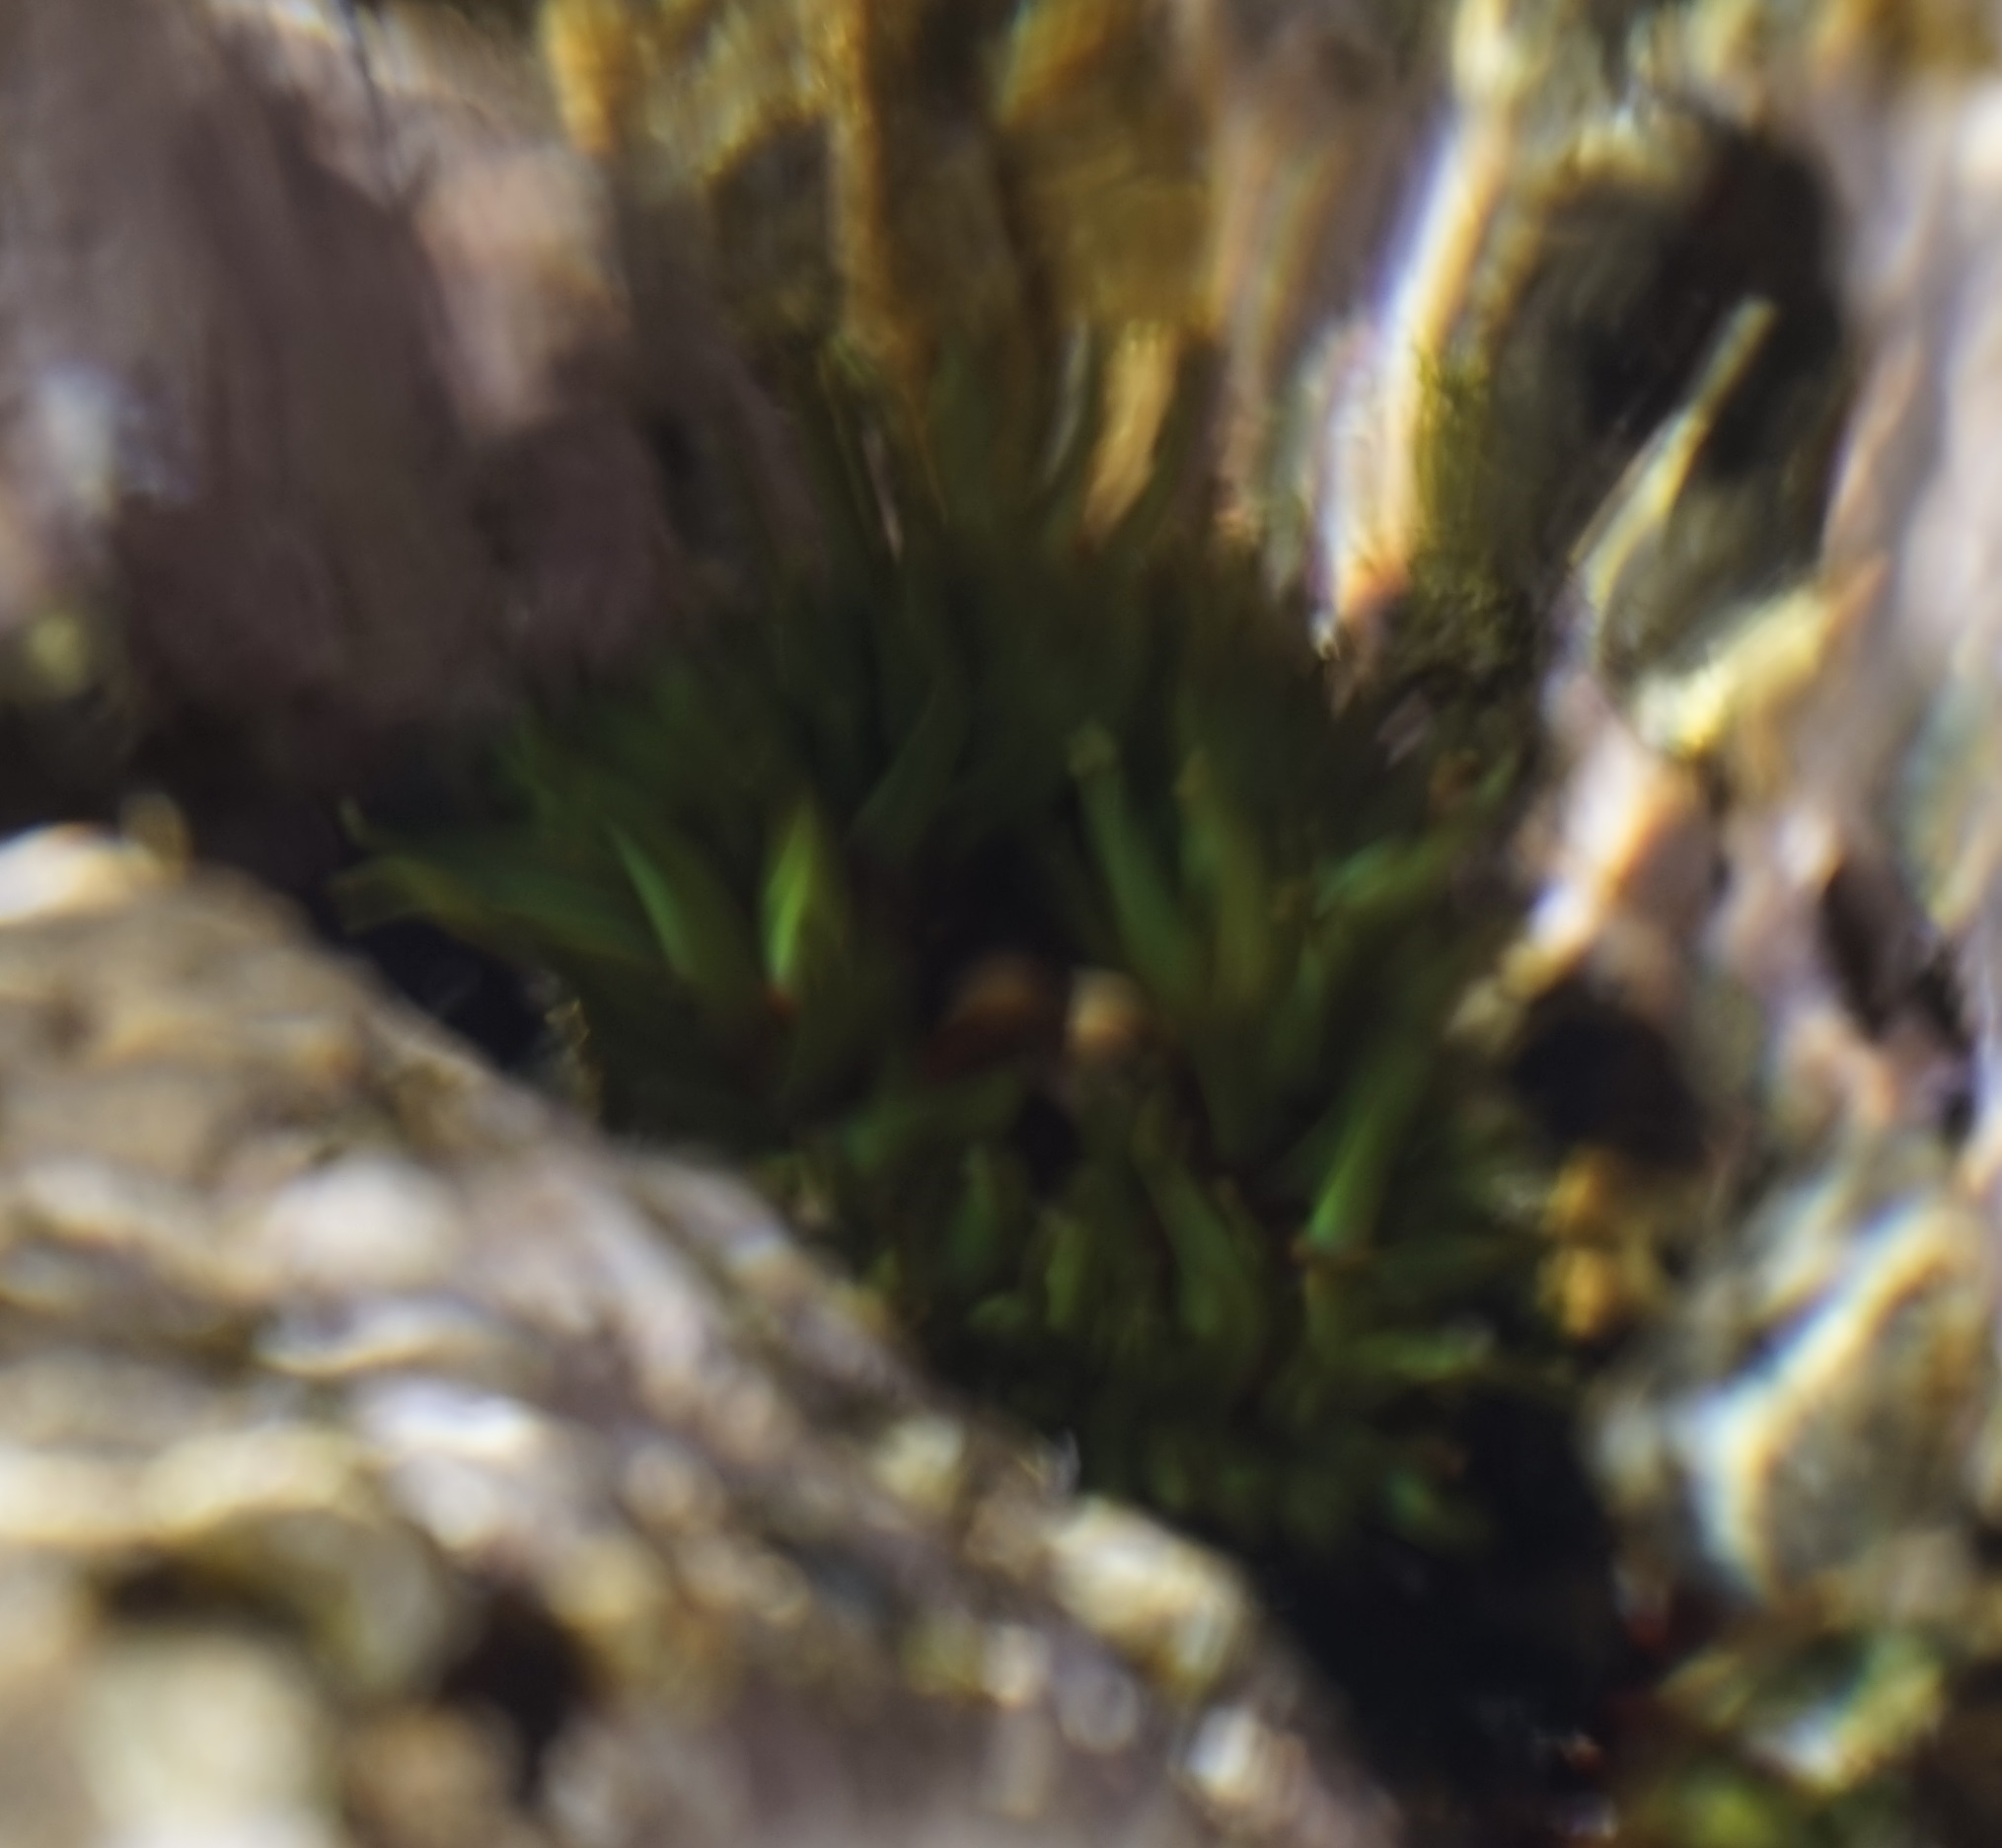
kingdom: Animalia
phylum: Cnidaria
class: Anthozoa
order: Actiniaria
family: Actiniidae
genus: Aulactinia
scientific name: Aulactinia veratra
